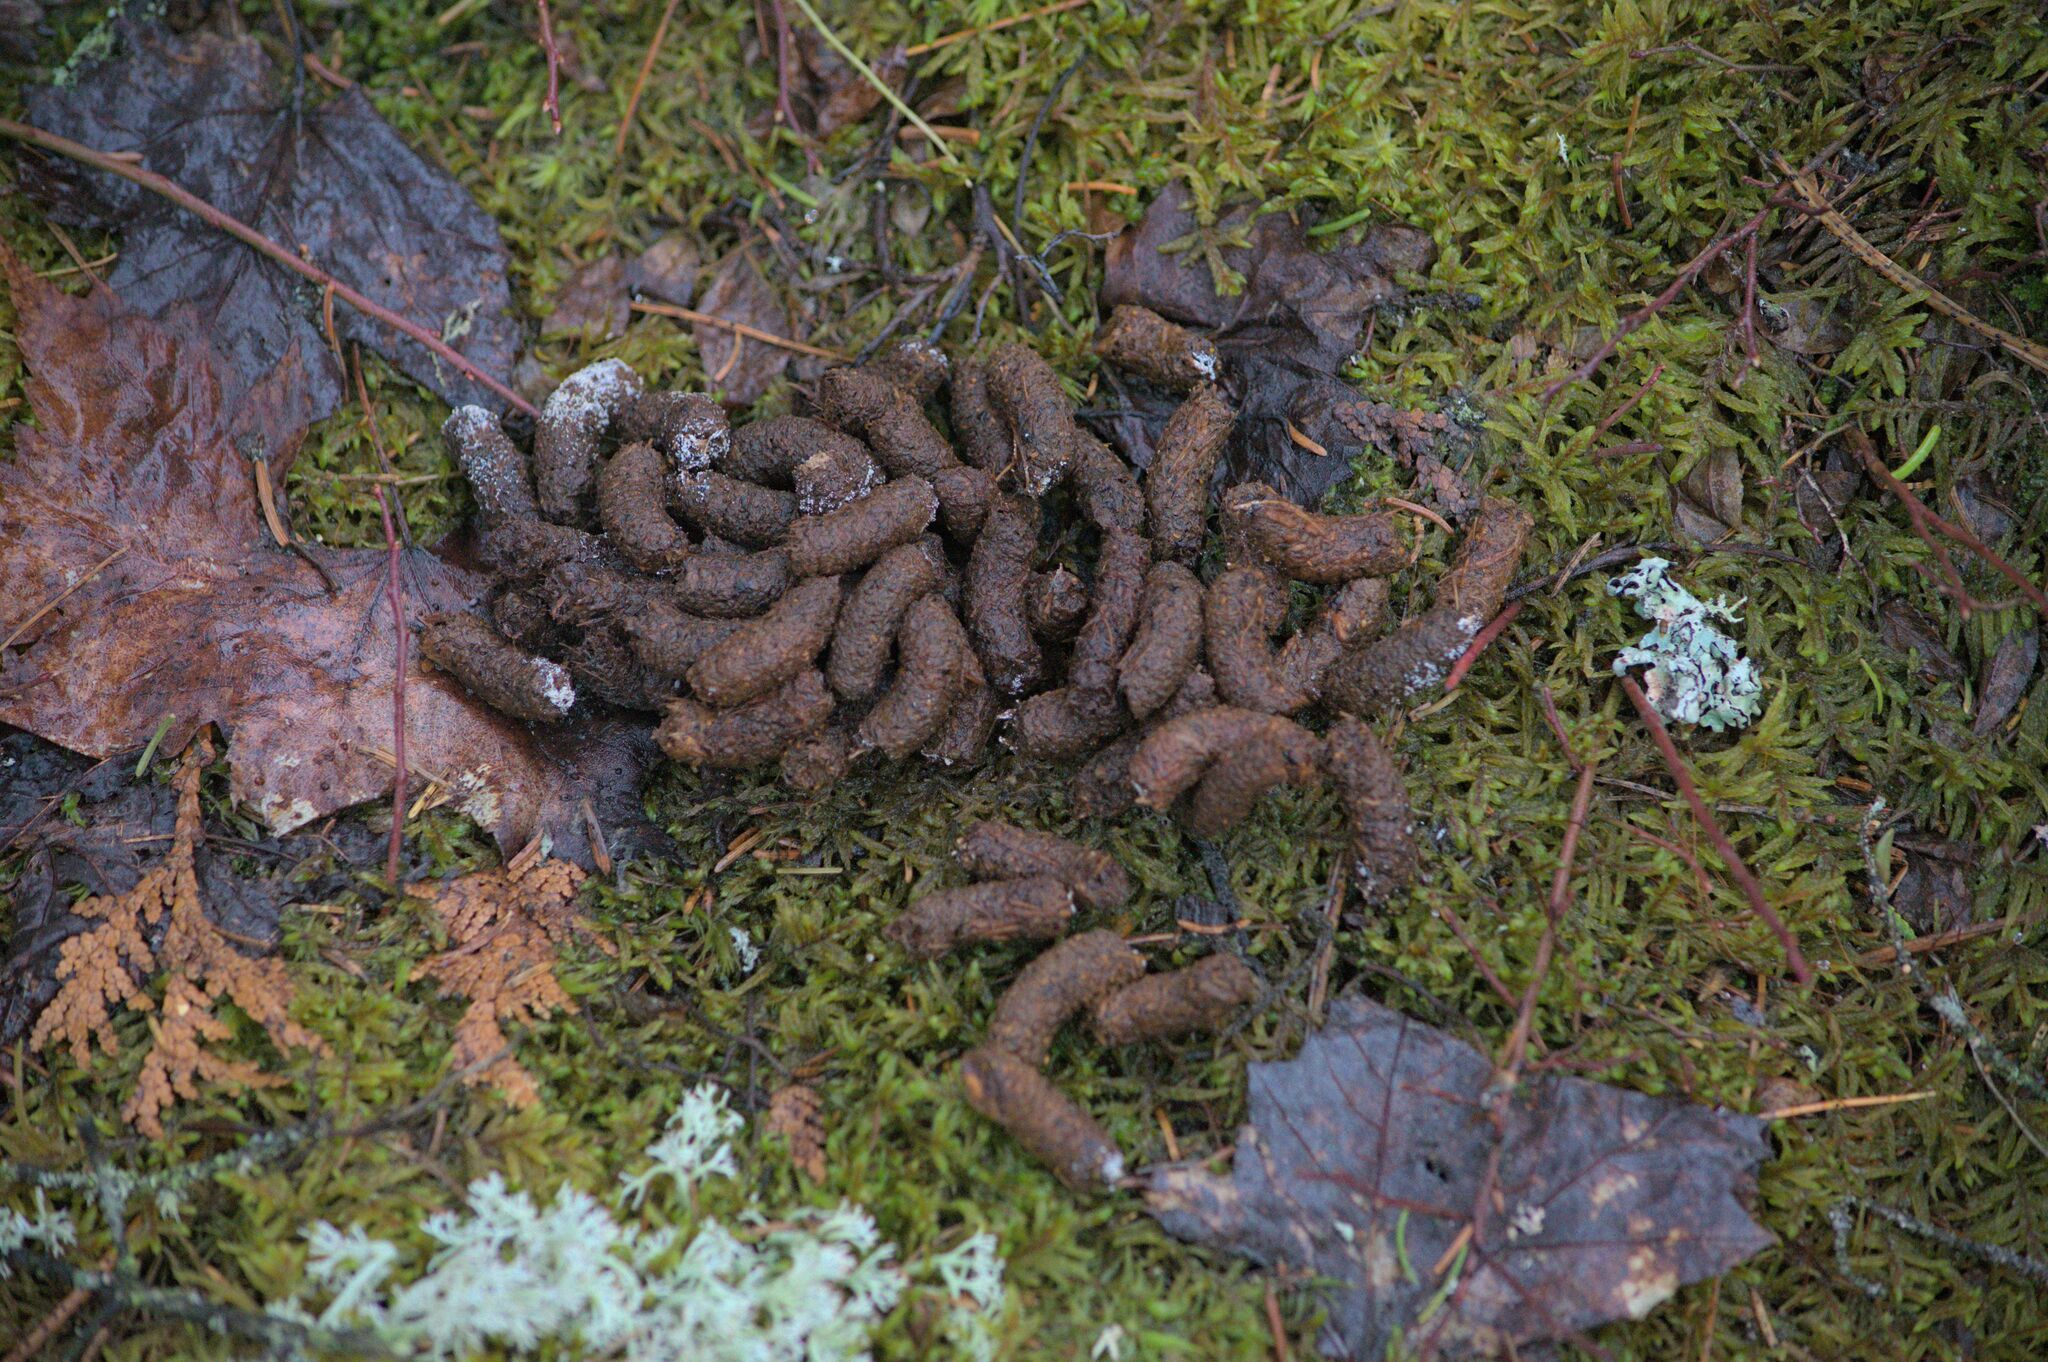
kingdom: Animalia
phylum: Chordata
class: Aves
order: Galliformes
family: Phasianidae
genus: Bonasa
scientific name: Bonasa umbellus
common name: Ruffed grouse
